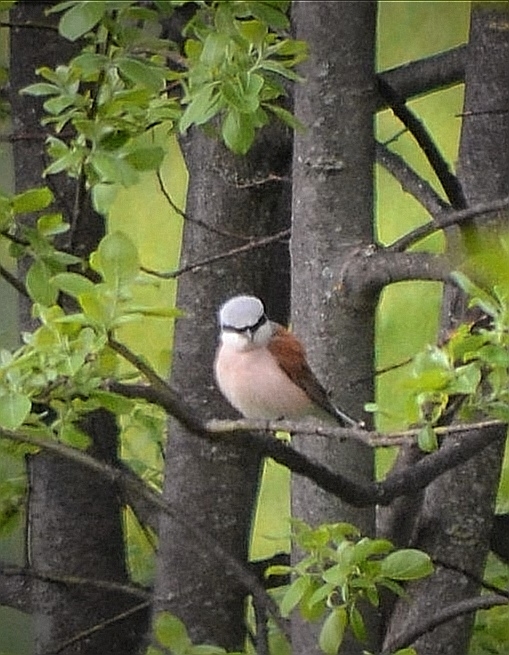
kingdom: Animalia
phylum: Chordata
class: Aves
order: Passeriformes
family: Laniidae
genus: Lanius
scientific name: Lanius collurio
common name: Red-backed shrike
